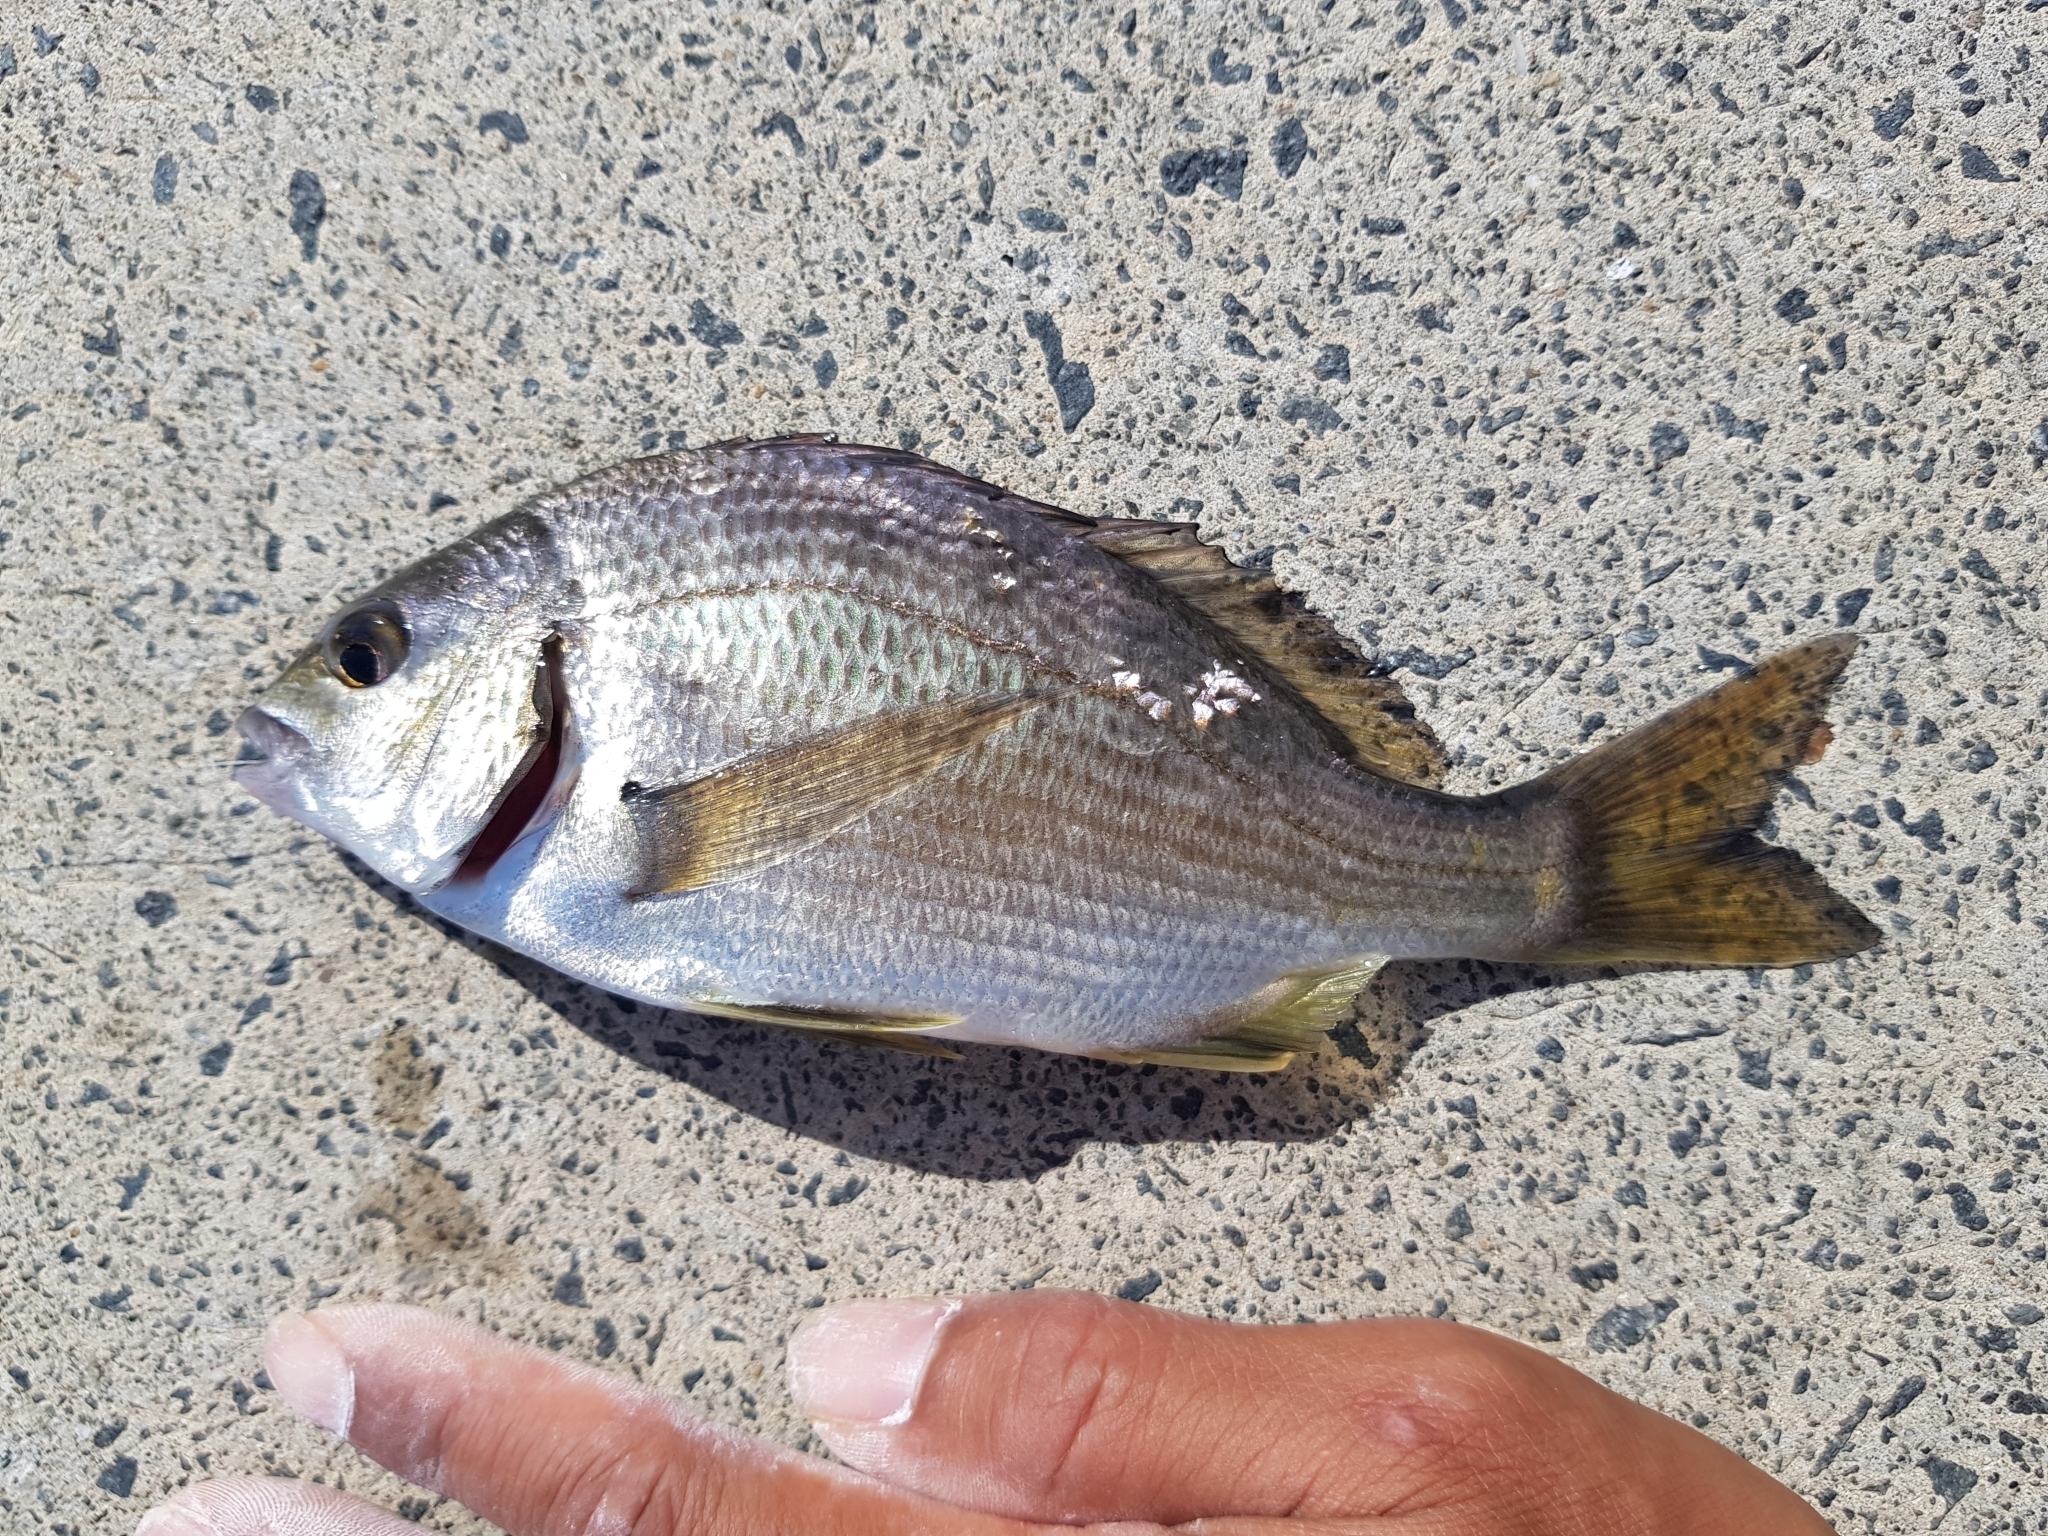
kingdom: Animalia
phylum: Chordata
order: Perciformes
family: Sparidae
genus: Acanthopagrus
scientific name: Acanthopagrus butcheri
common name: Black bream
